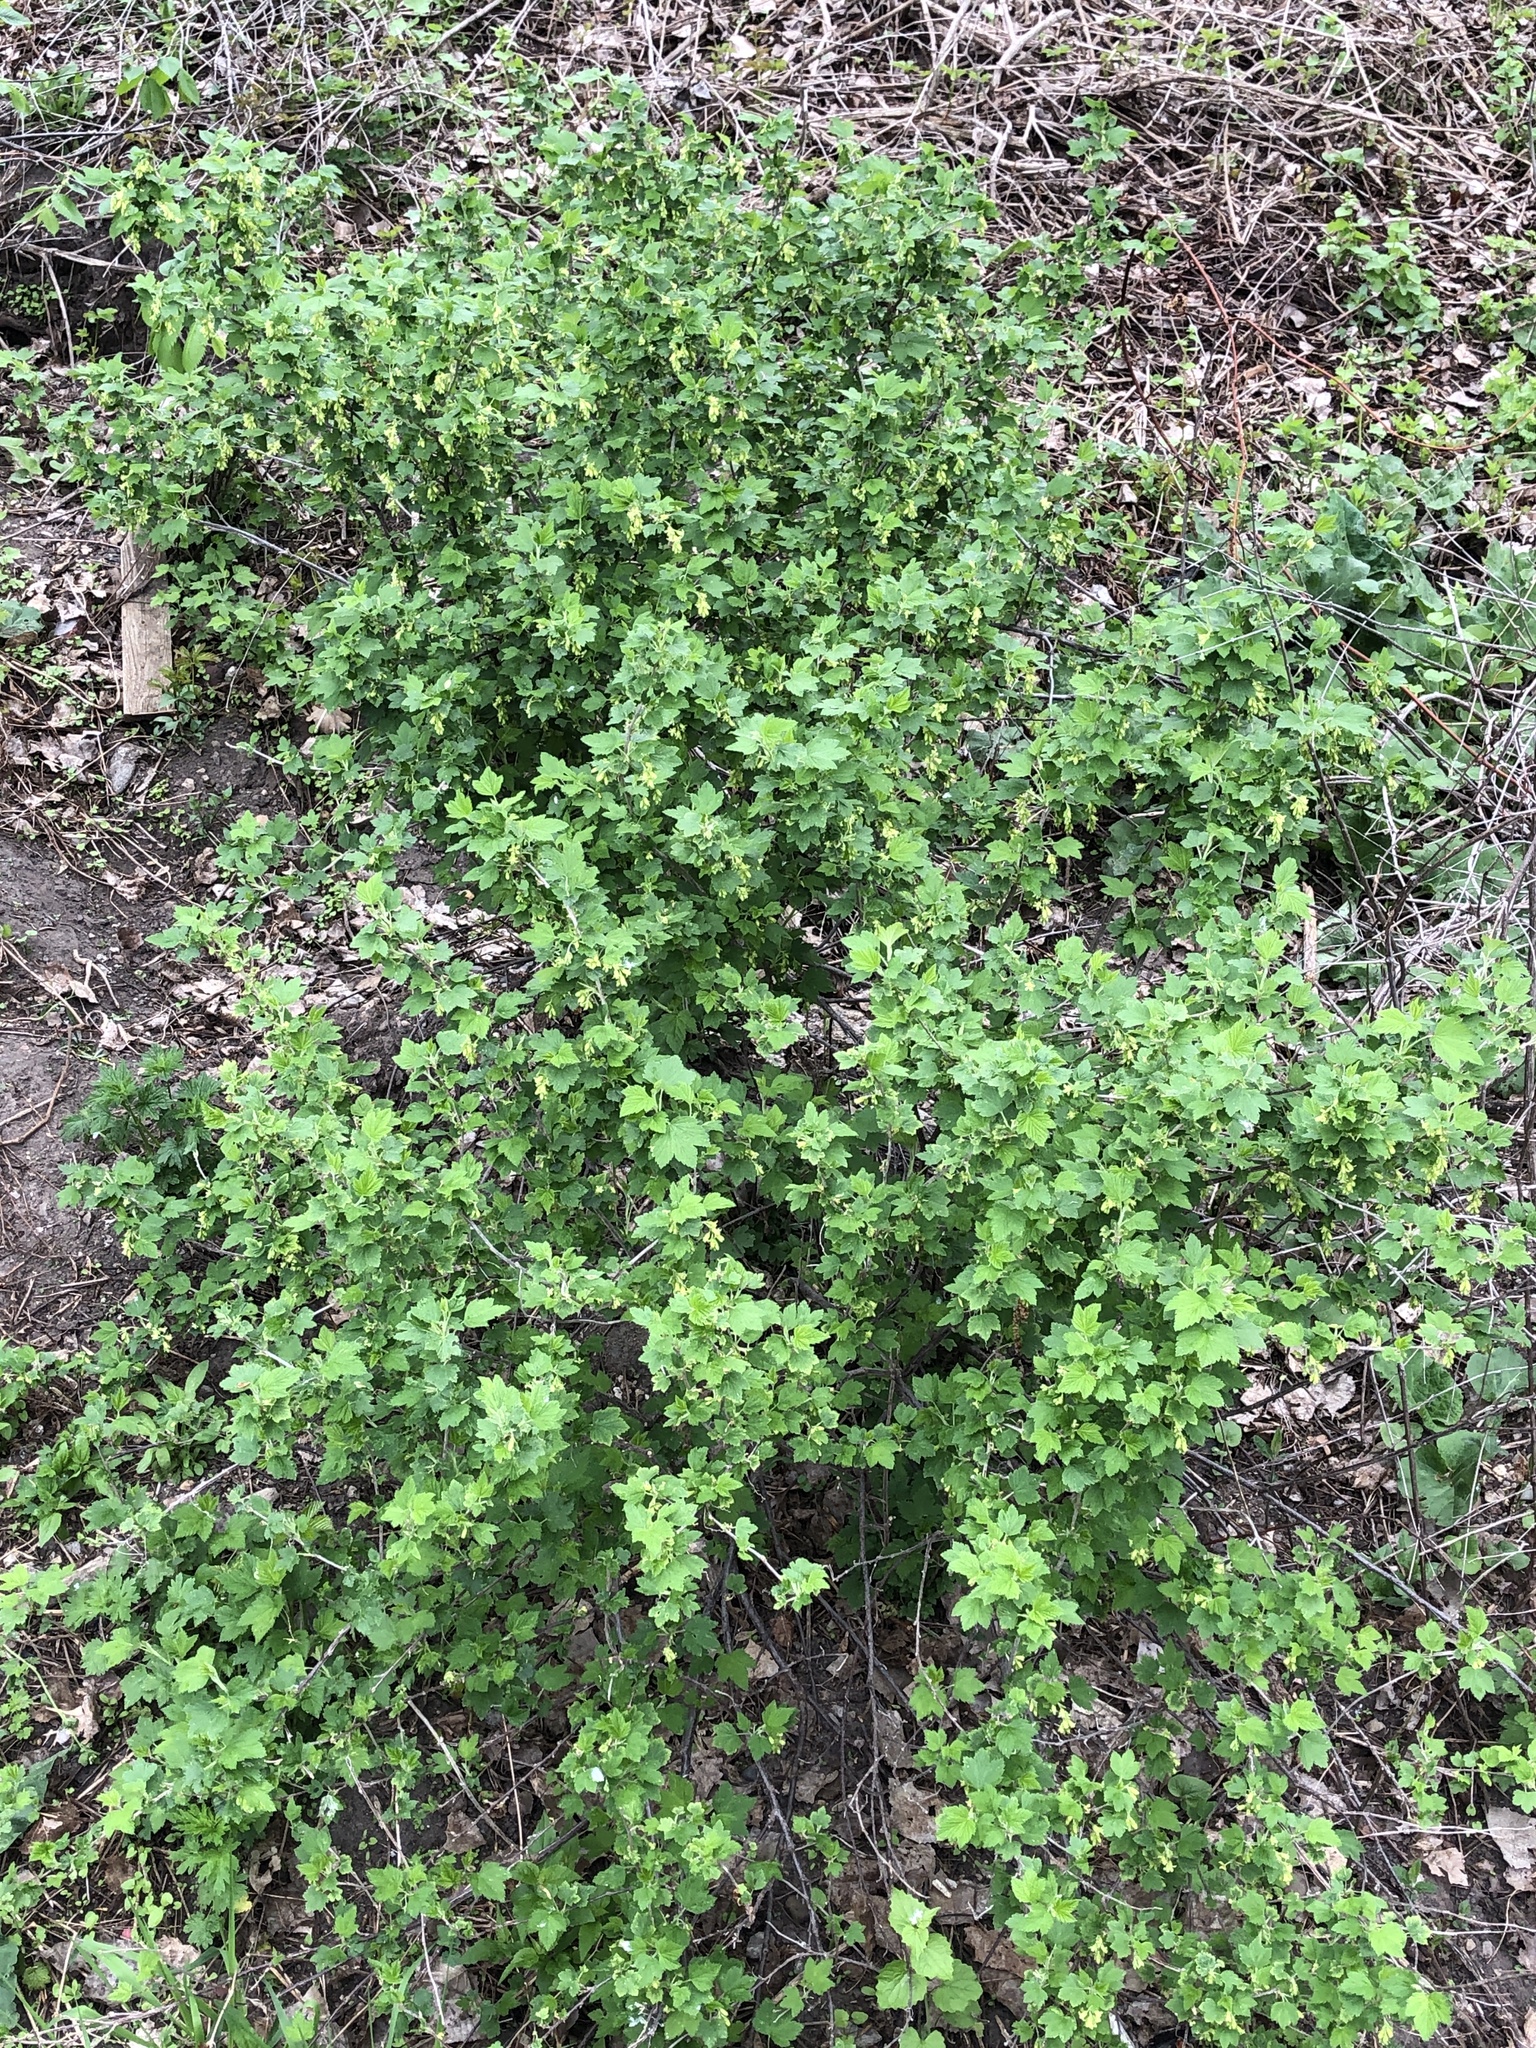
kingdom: Plantae
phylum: Tracheophyta
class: Magnoliopsida
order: Saxifragales
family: Grossulariaceae
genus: Ribes
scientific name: Ribes americanum
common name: American black currant
